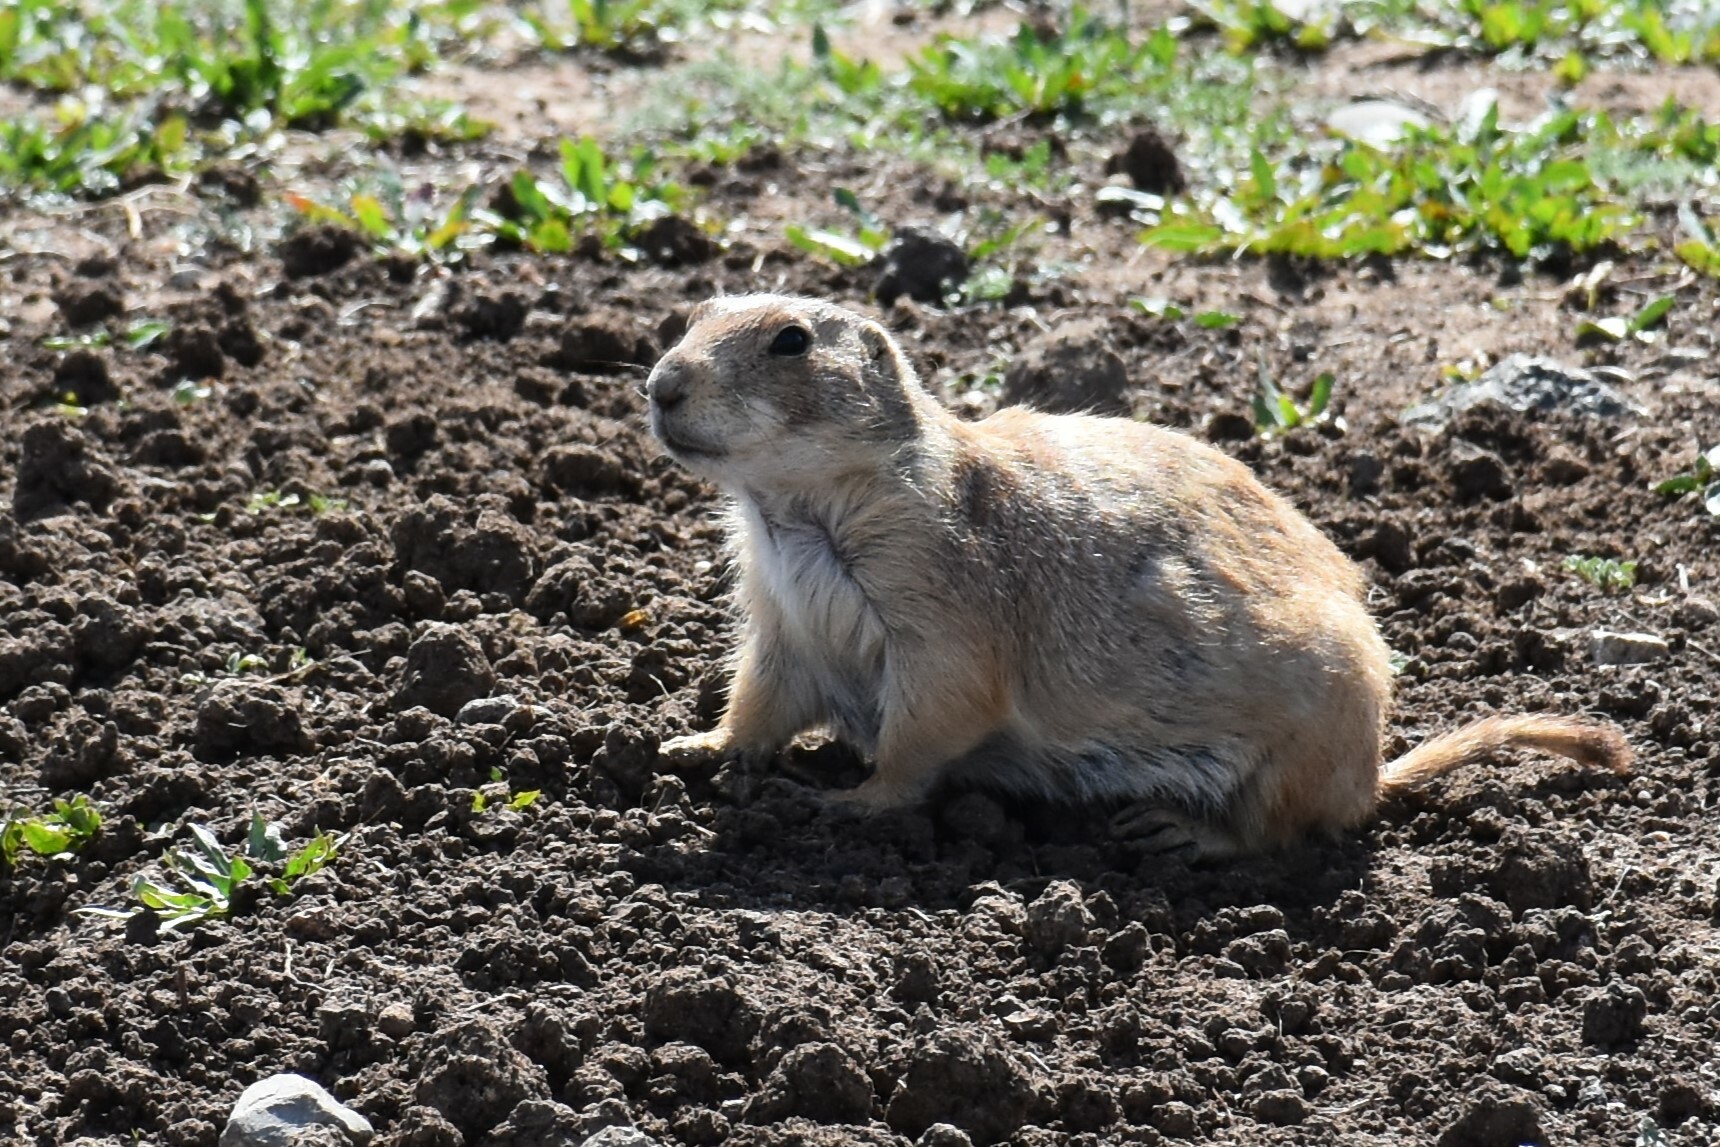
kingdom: Animalia
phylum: Chordata
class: Mammalia
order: Rodentia
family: Sciuridae
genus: Cynomys
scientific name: Cynomys ludovicianus
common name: Black-tailed prairie dog
